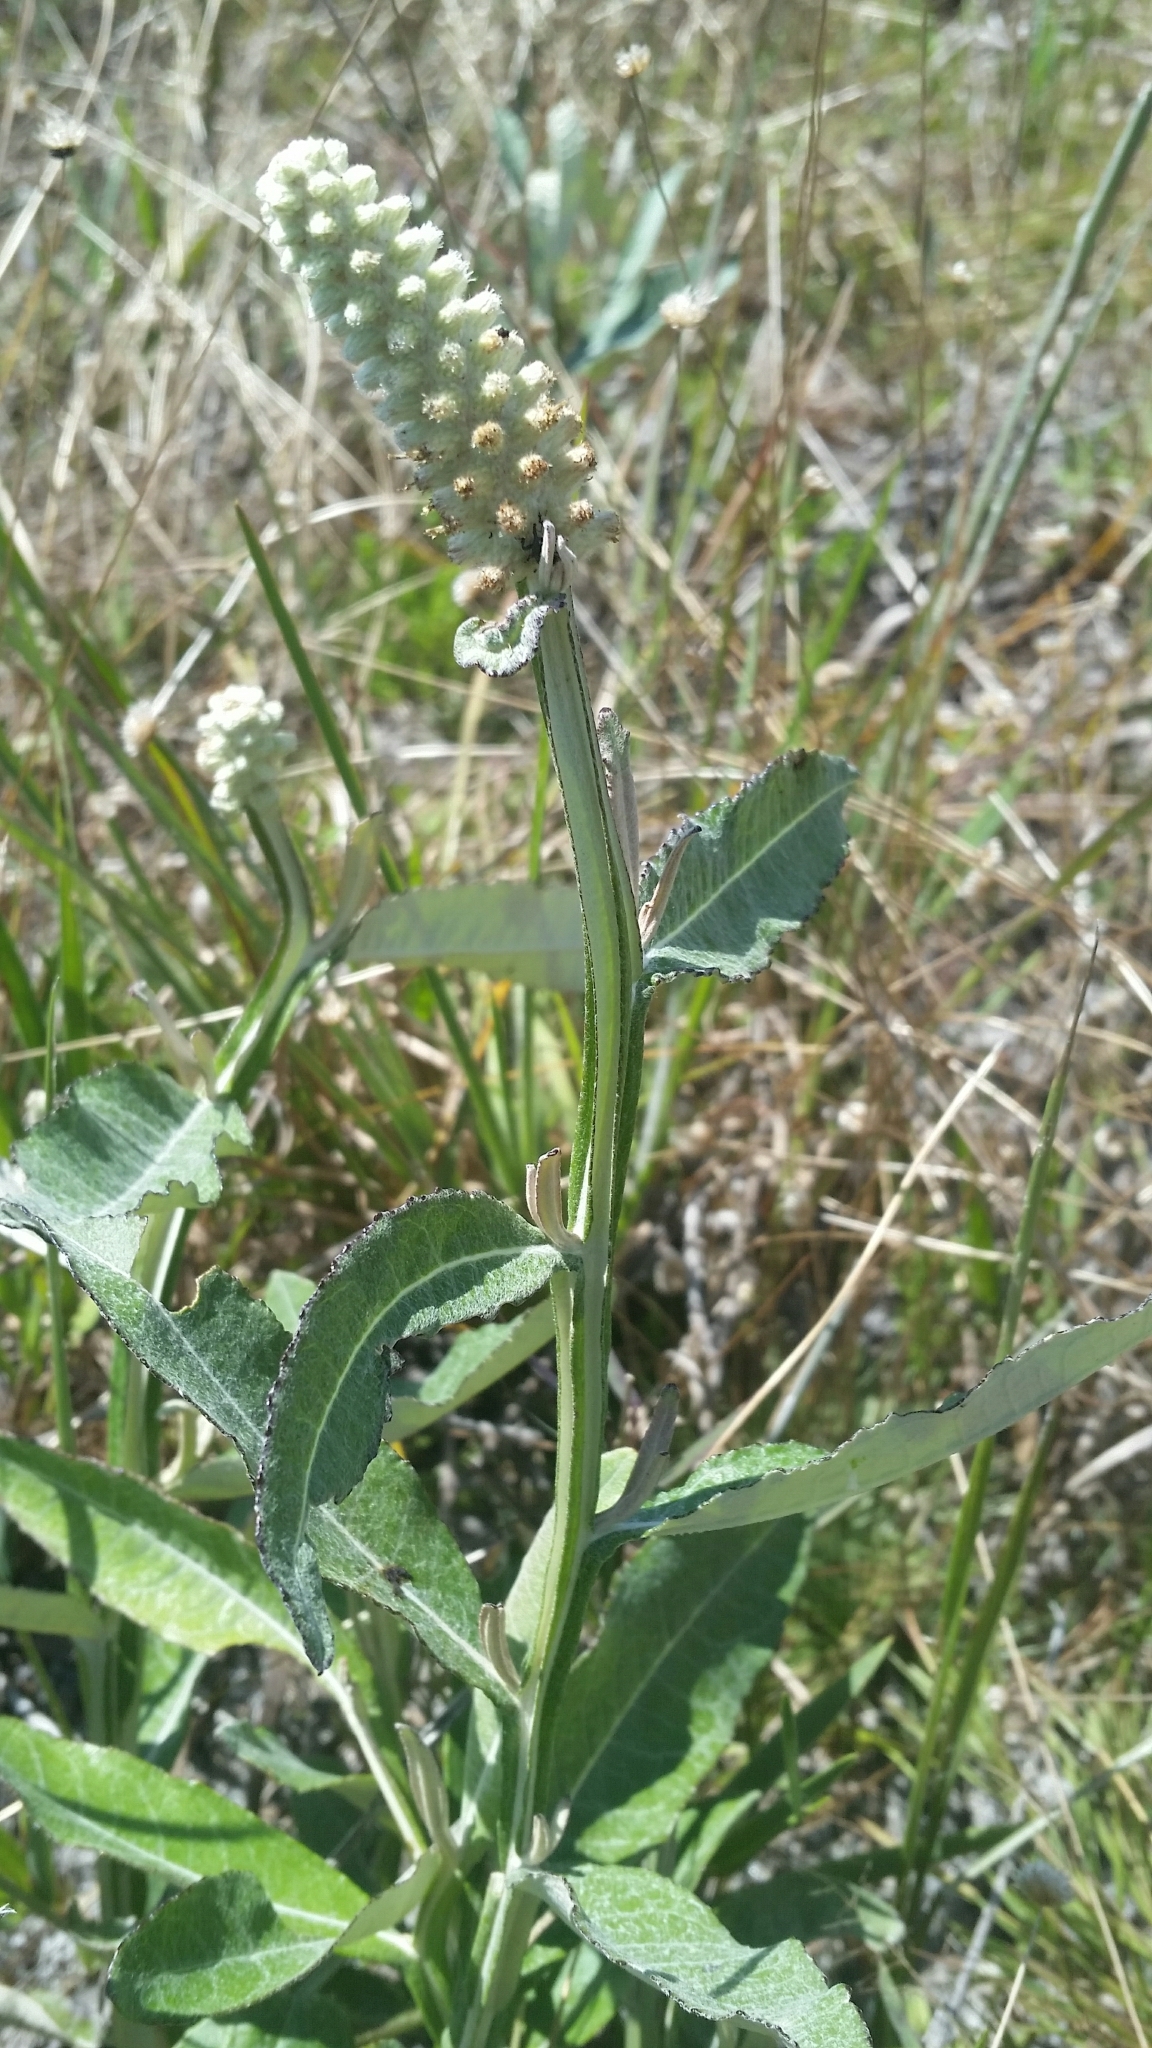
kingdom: Plantae
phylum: Tracheophyta
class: Magnoliopsida
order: Asterales
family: Asteraceae
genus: Pterocaulon
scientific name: Pterocaulon pycnostachyum
